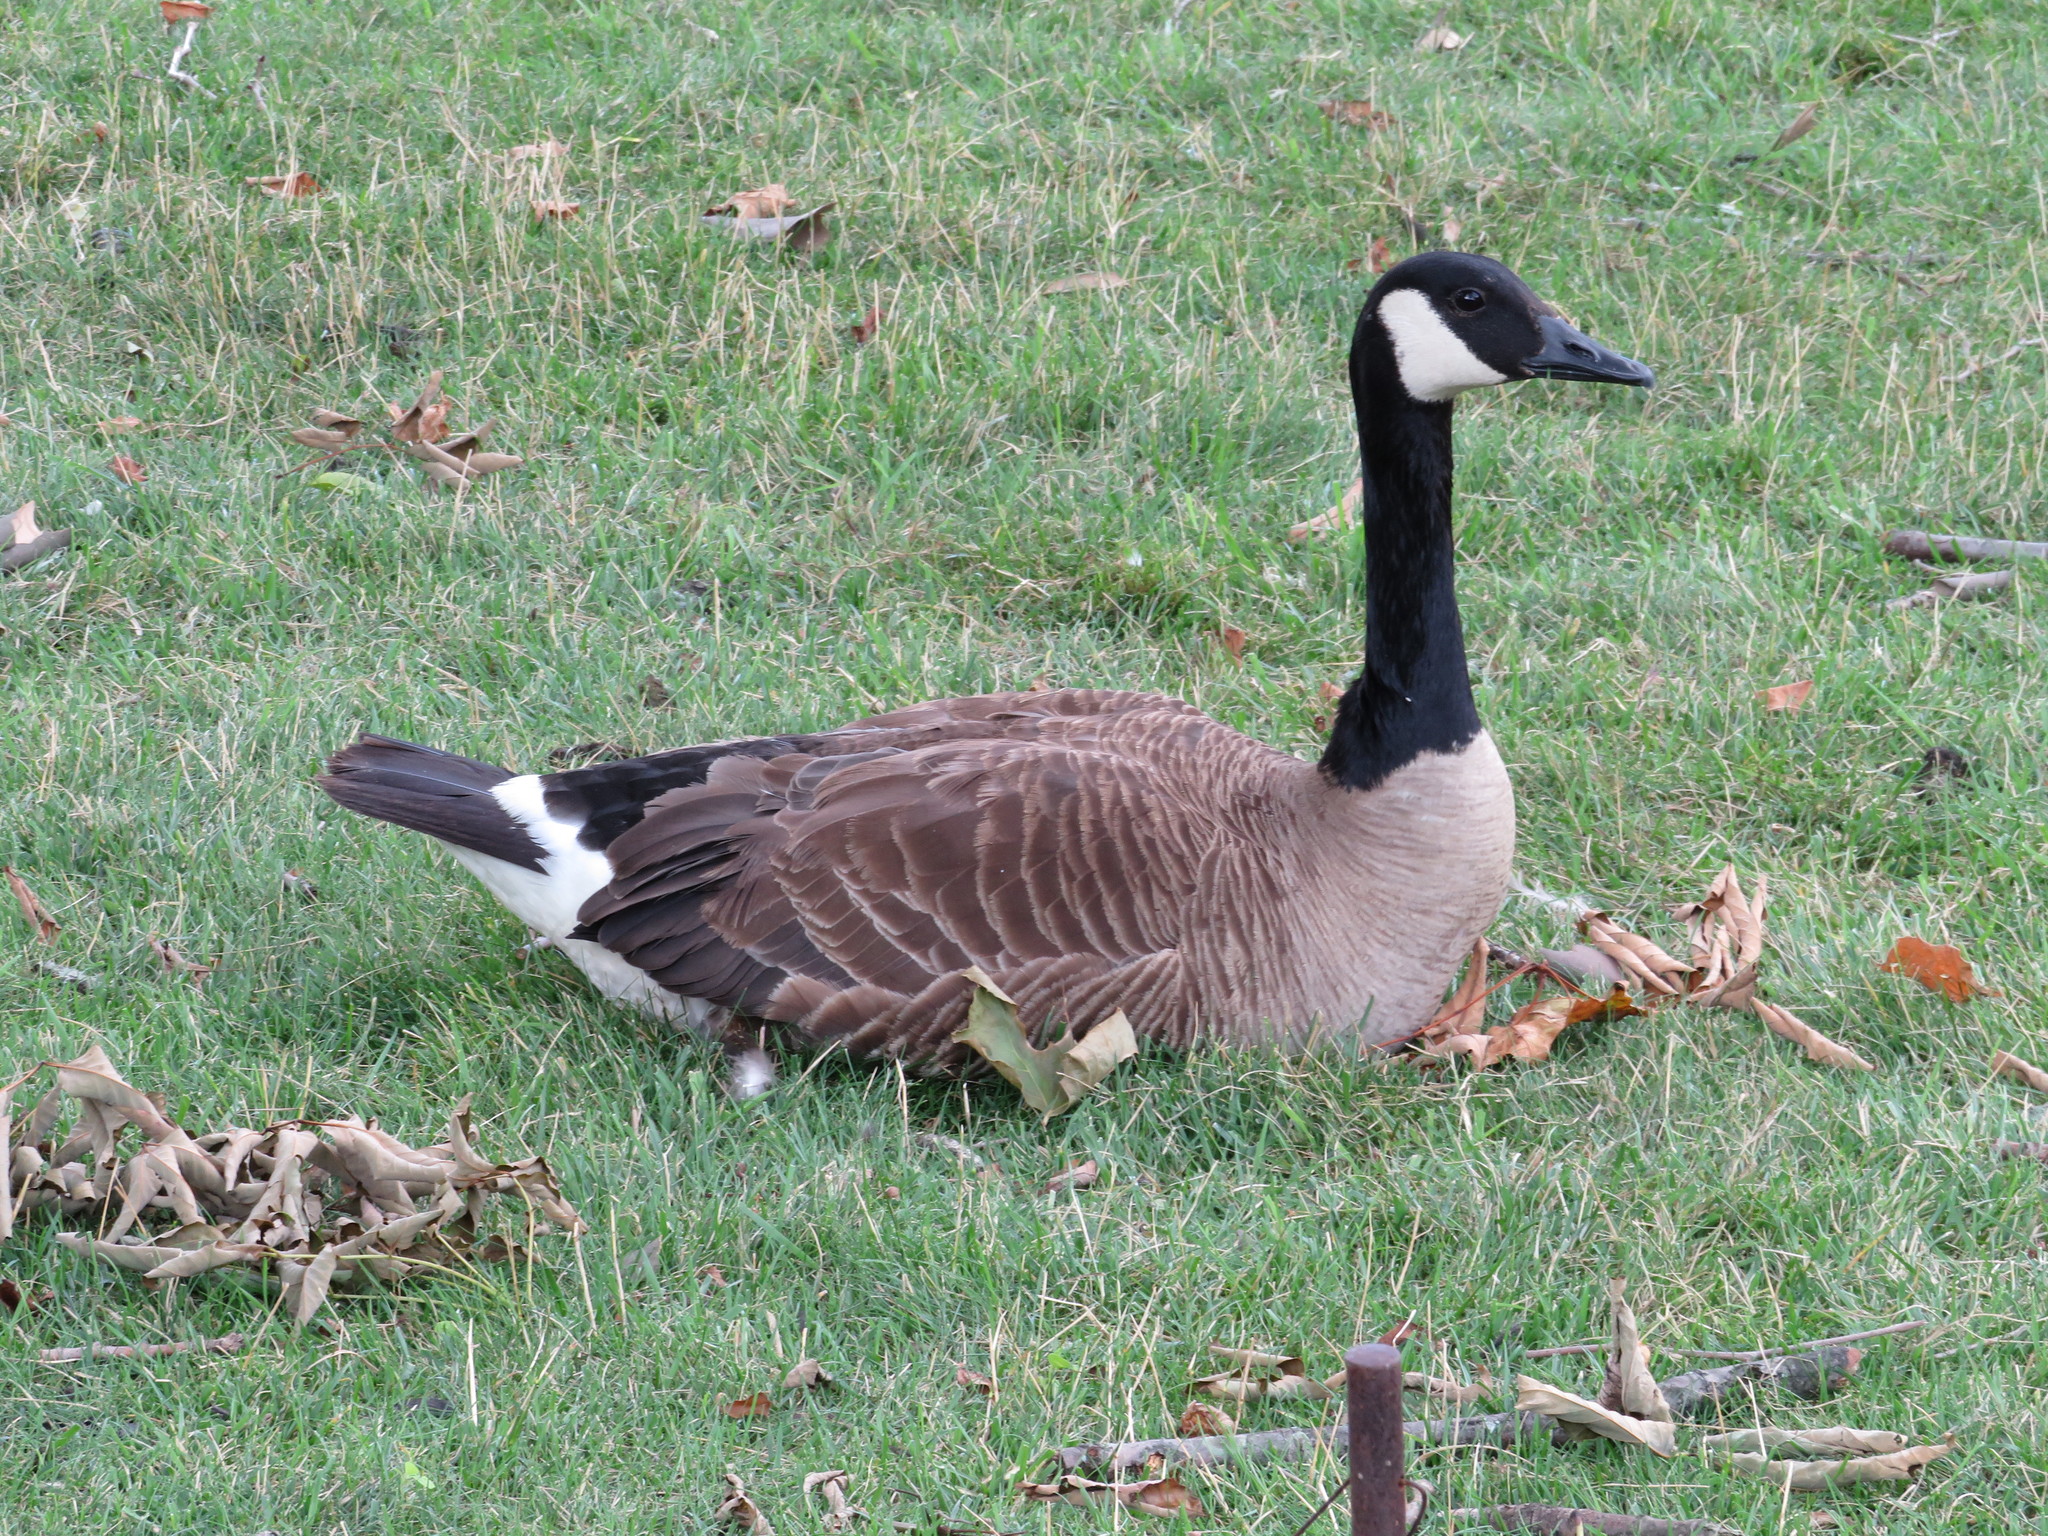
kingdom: Animalia
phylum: Chordata
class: Aves
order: Anseriformes
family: Anatidae
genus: Branta
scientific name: Branta canadensis
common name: Canada goose
